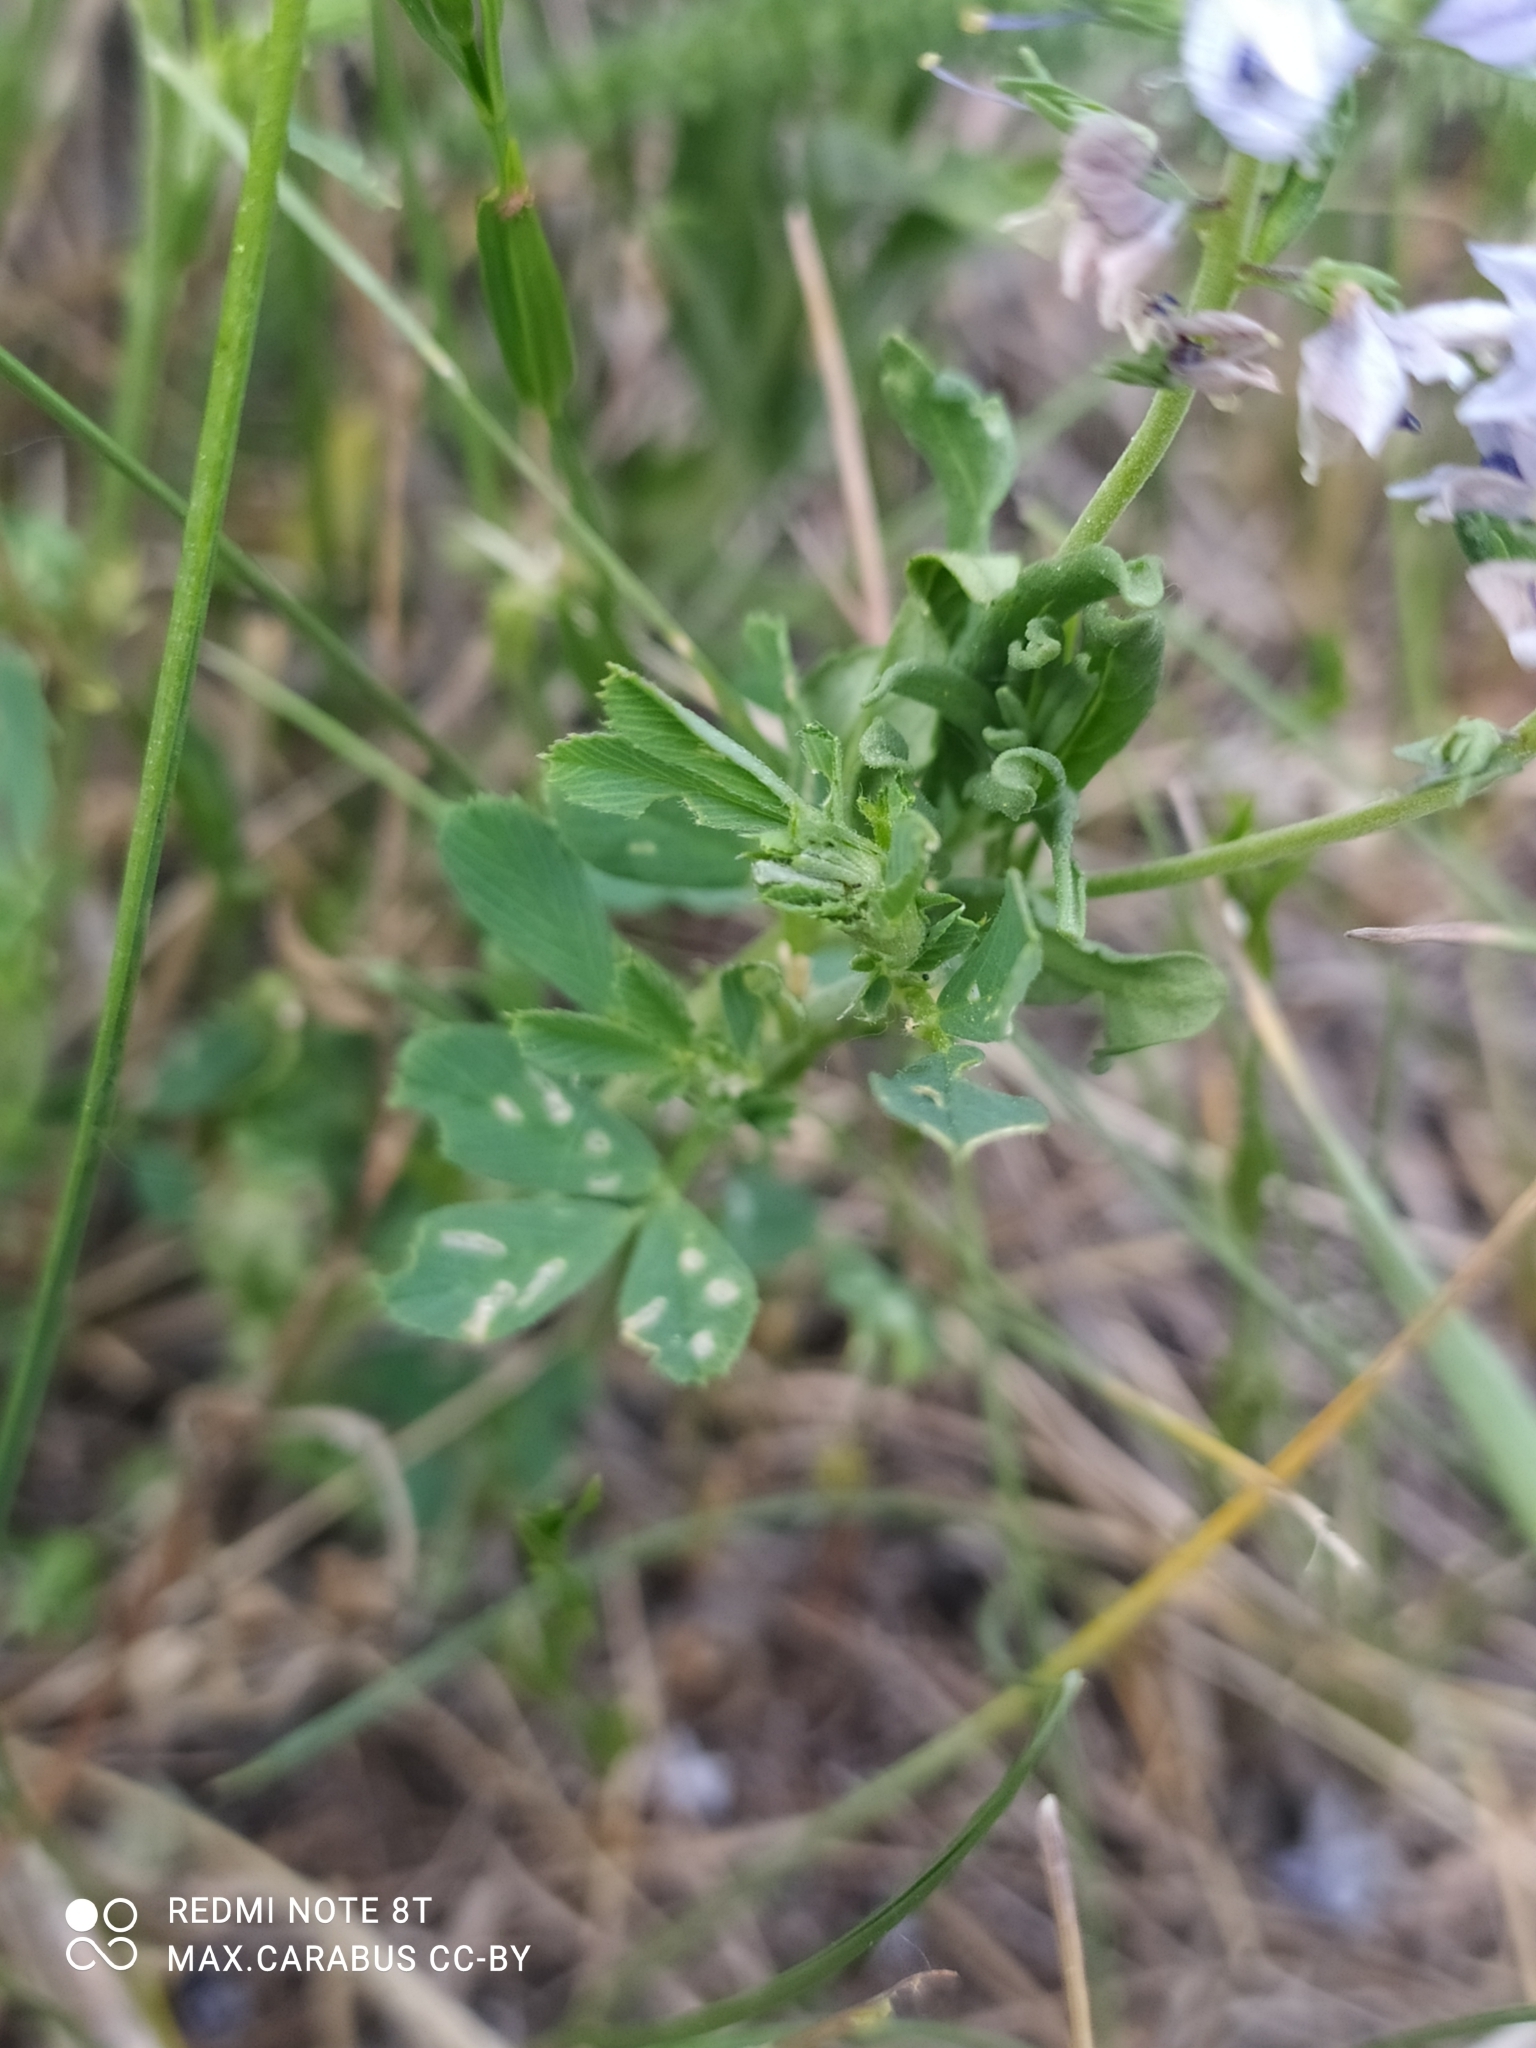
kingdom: Plantae
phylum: Tracheophyta
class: Magnoliopsida
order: Lamiales
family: Plantaginaceae
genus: Veronica
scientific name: Veronica prostrata
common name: Prostrate speedwell
